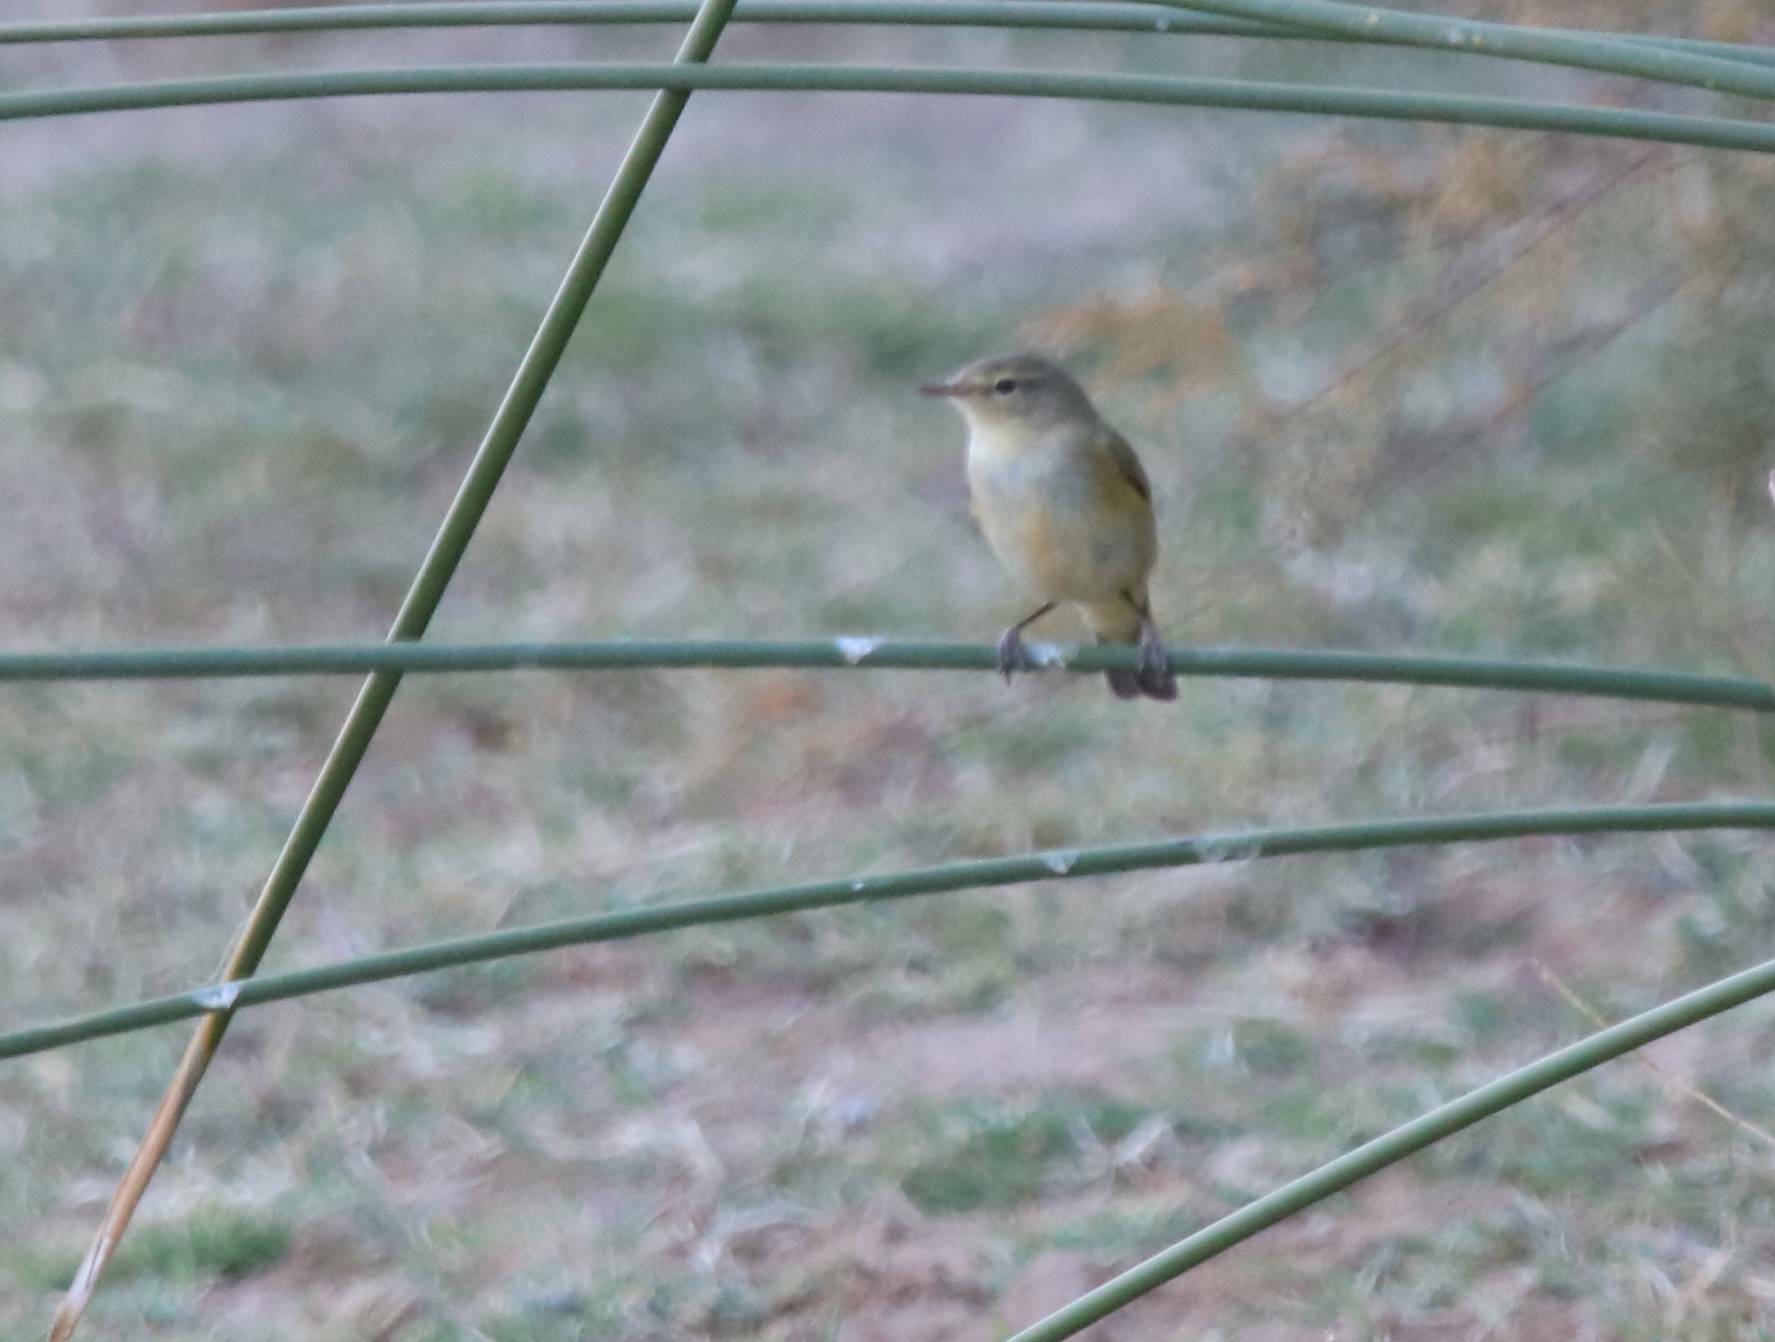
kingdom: Animalia
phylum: Chordata
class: Aves
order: Passeriformes
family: Phylloscopidae
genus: Phylloscopus
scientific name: Phylloscopus collybita
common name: Common chiffchaff
